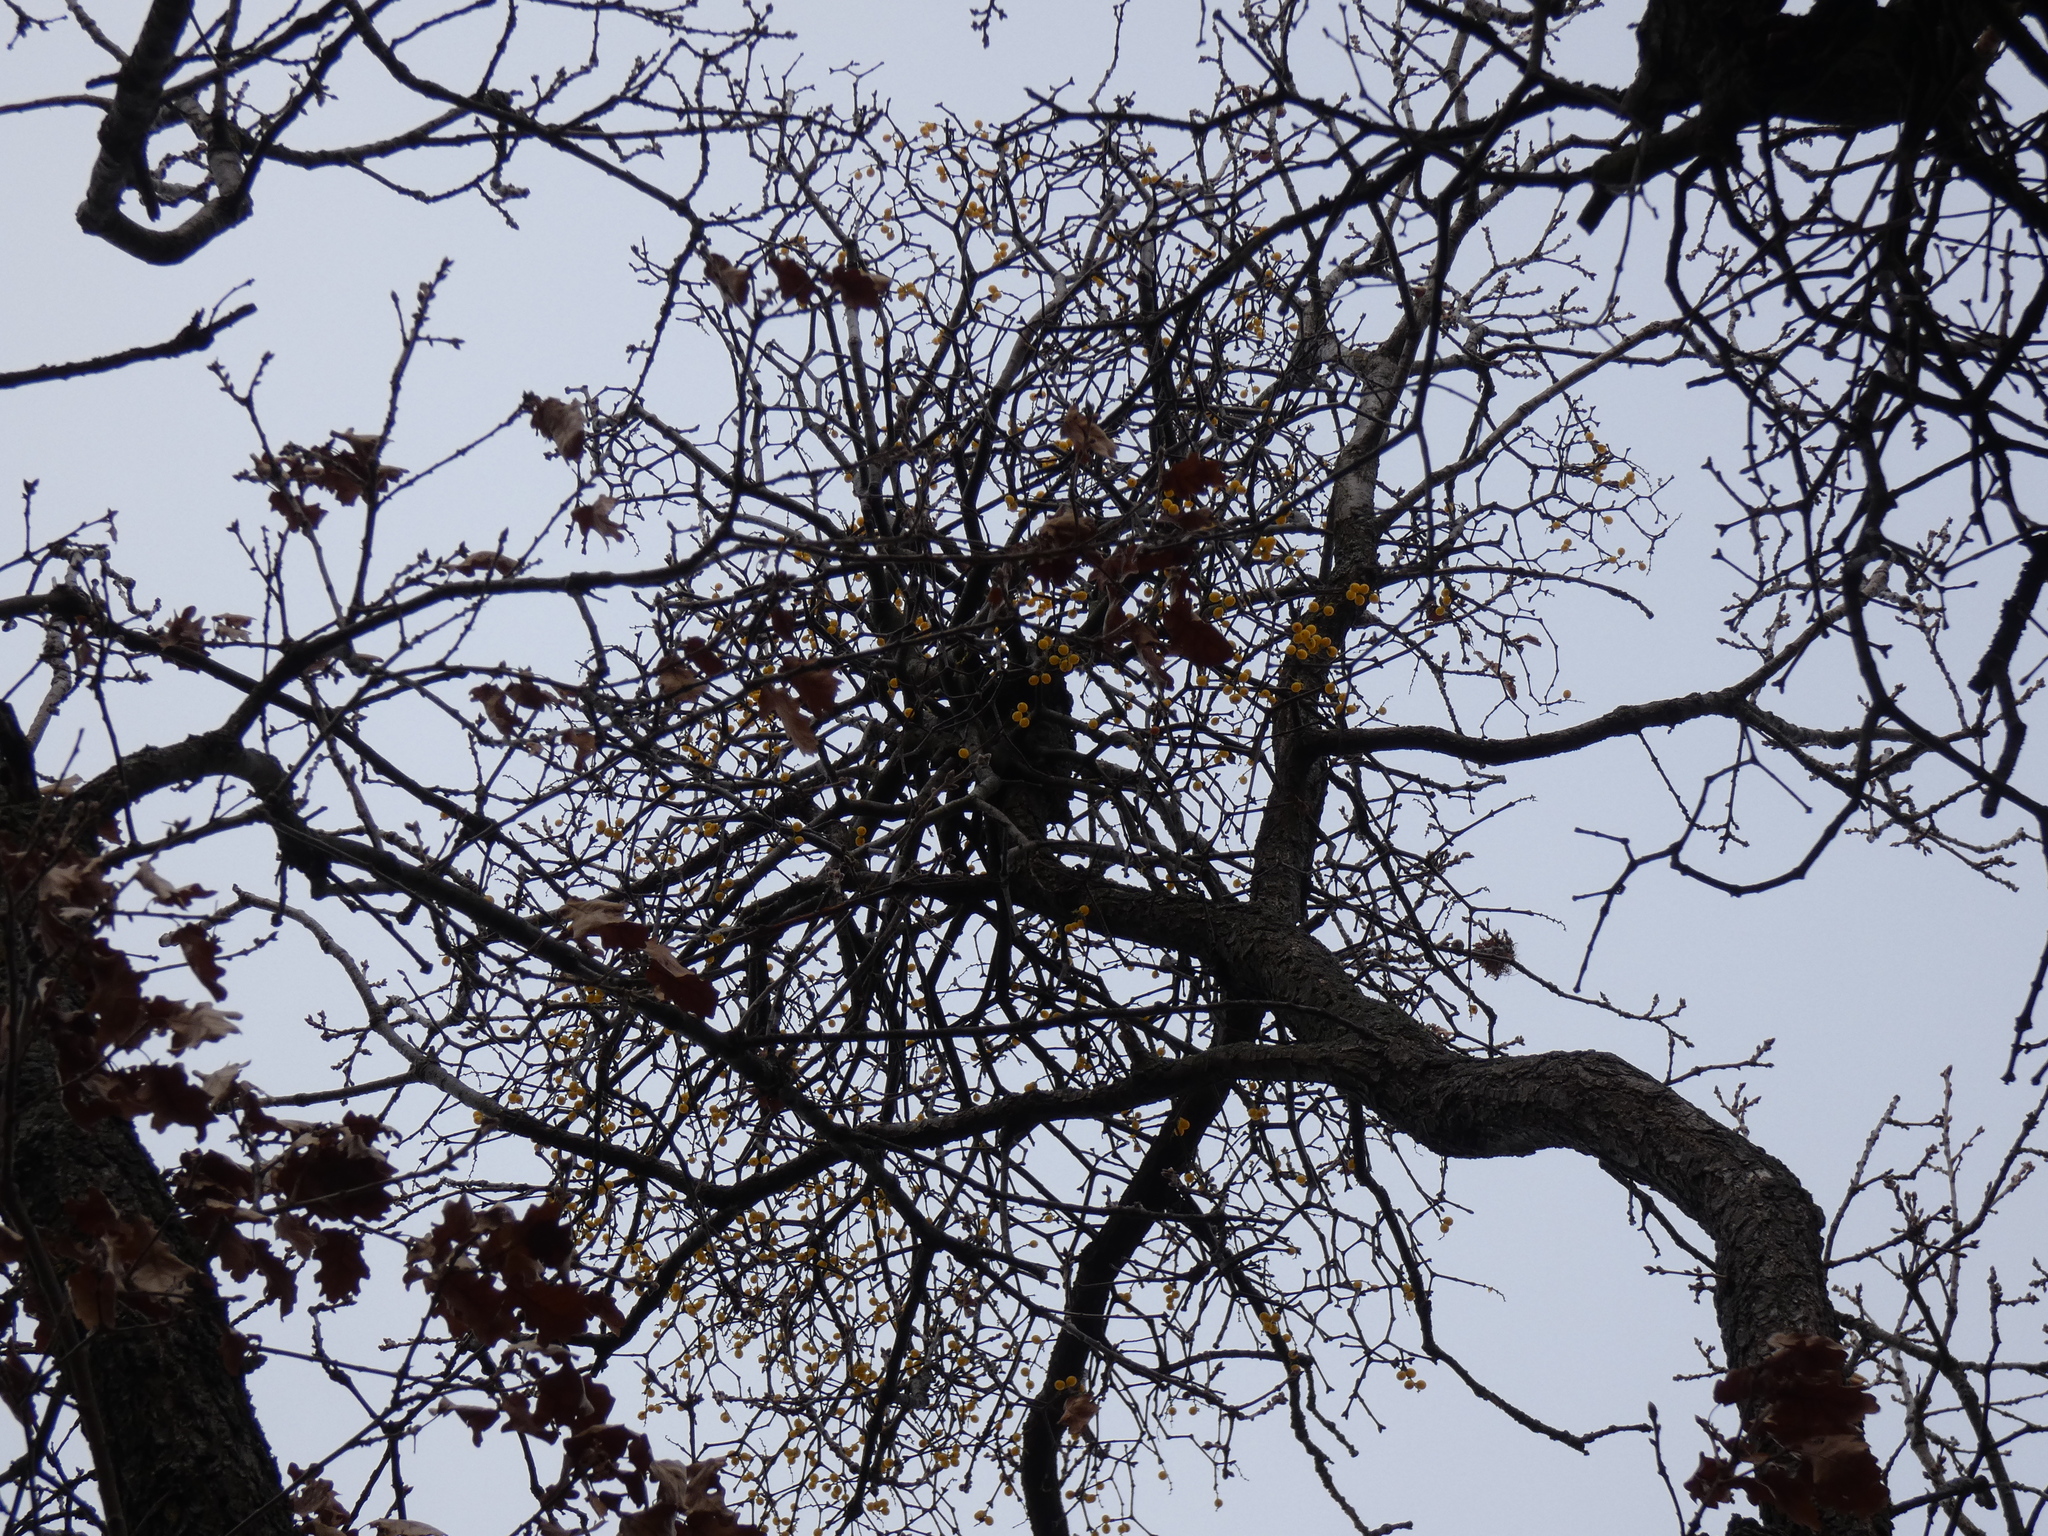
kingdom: Plantae
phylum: Tracheophyta
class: Magnoliopsida
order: Santalales
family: Loranthaceae
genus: Loranthus
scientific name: Loranthus europaeus
